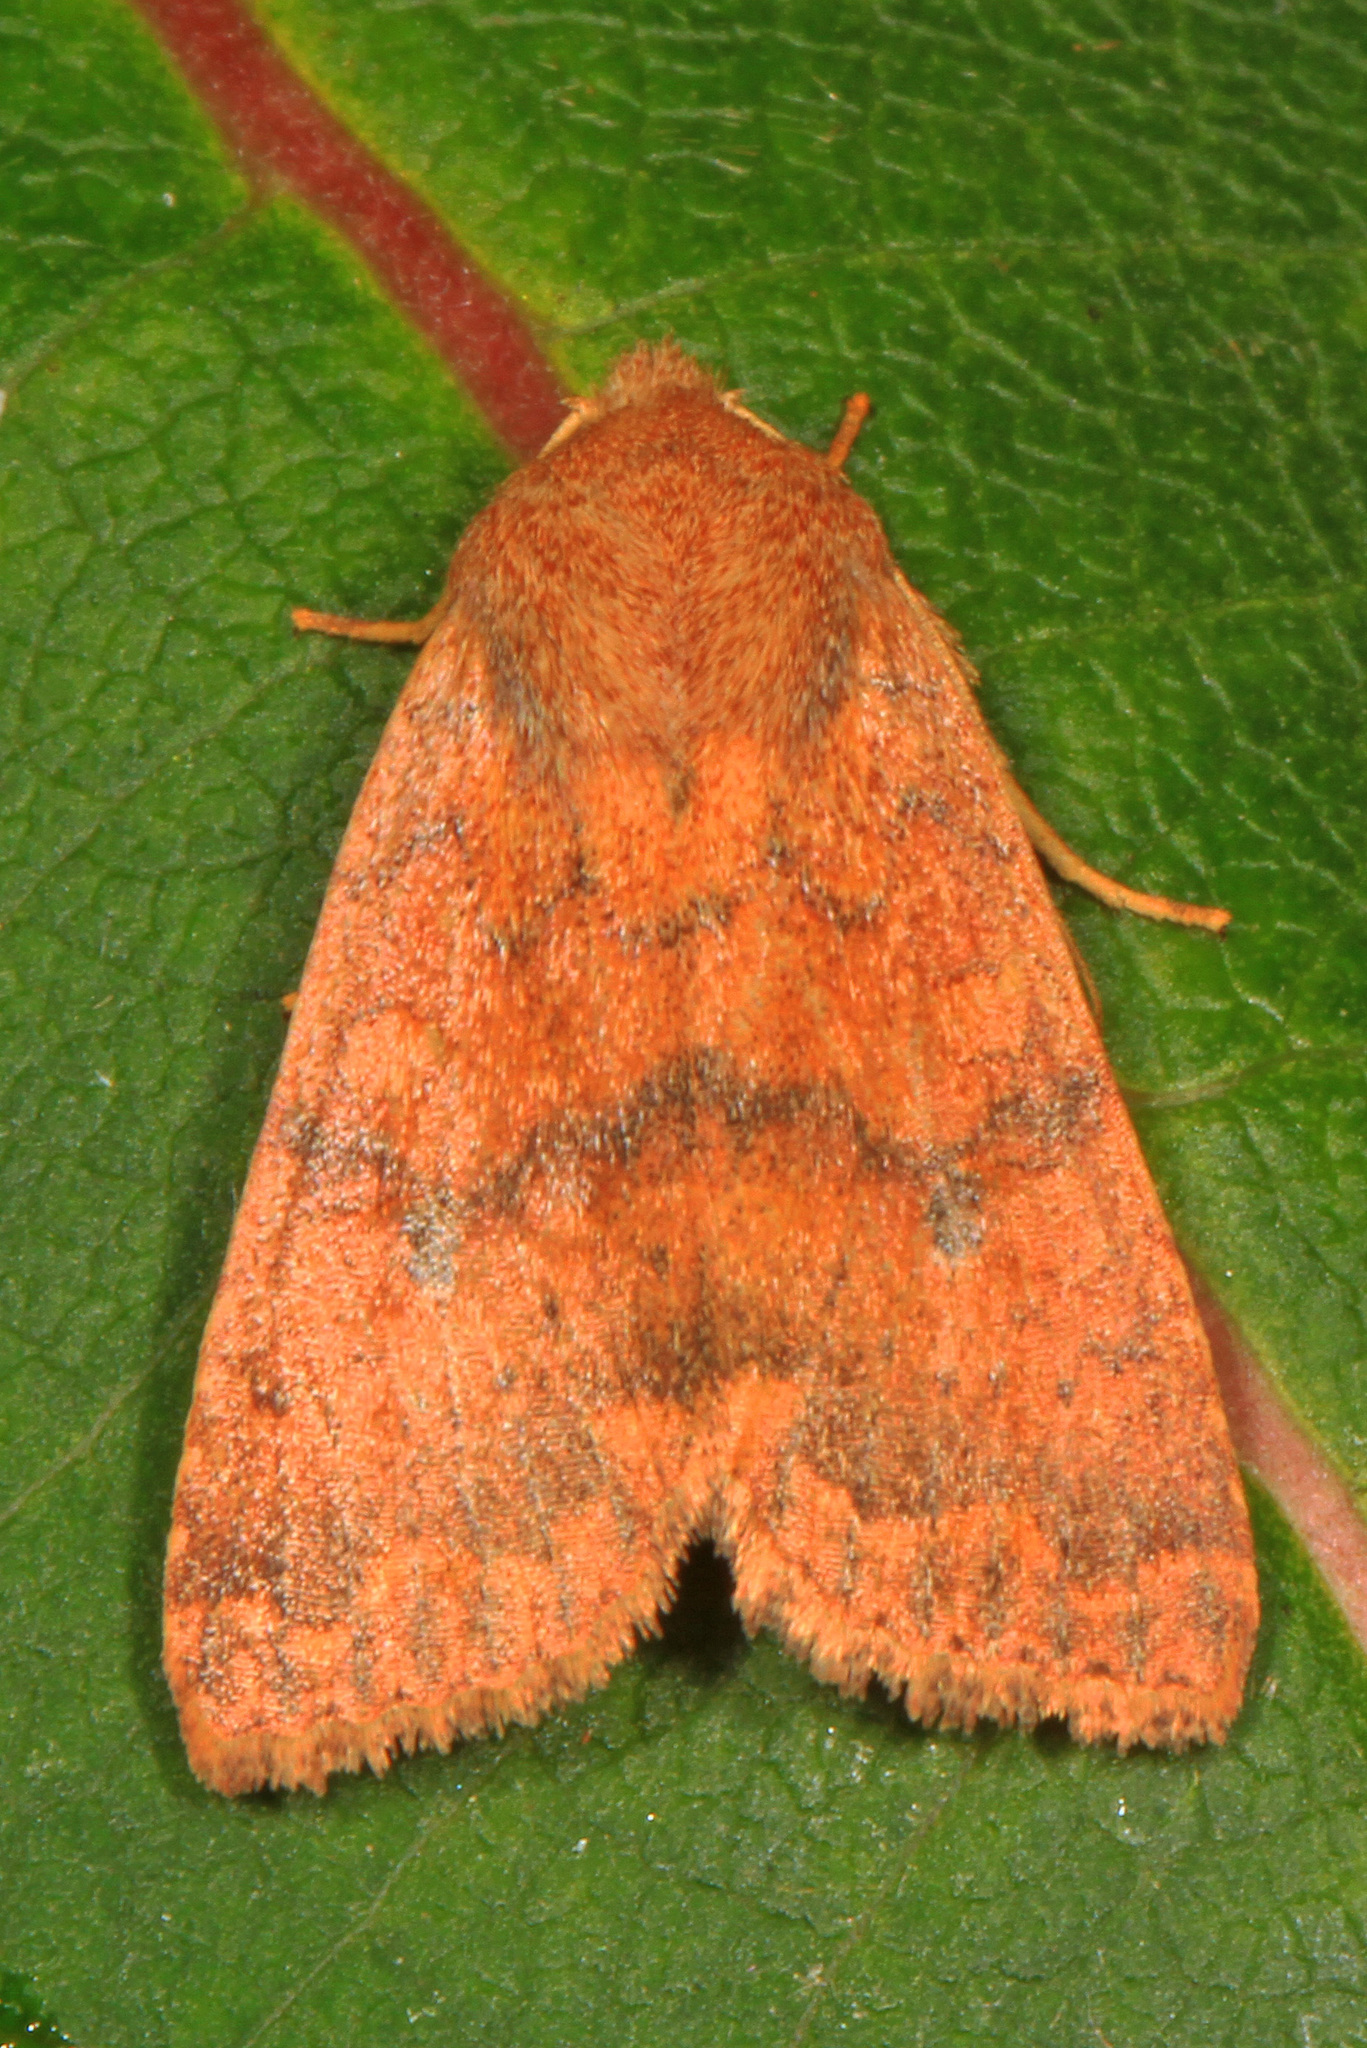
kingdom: Animalia
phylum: Arthropoda
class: Insecta
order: Lepidoptera
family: Noctuidae
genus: Agrochola
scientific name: Agrochola bicolorago
